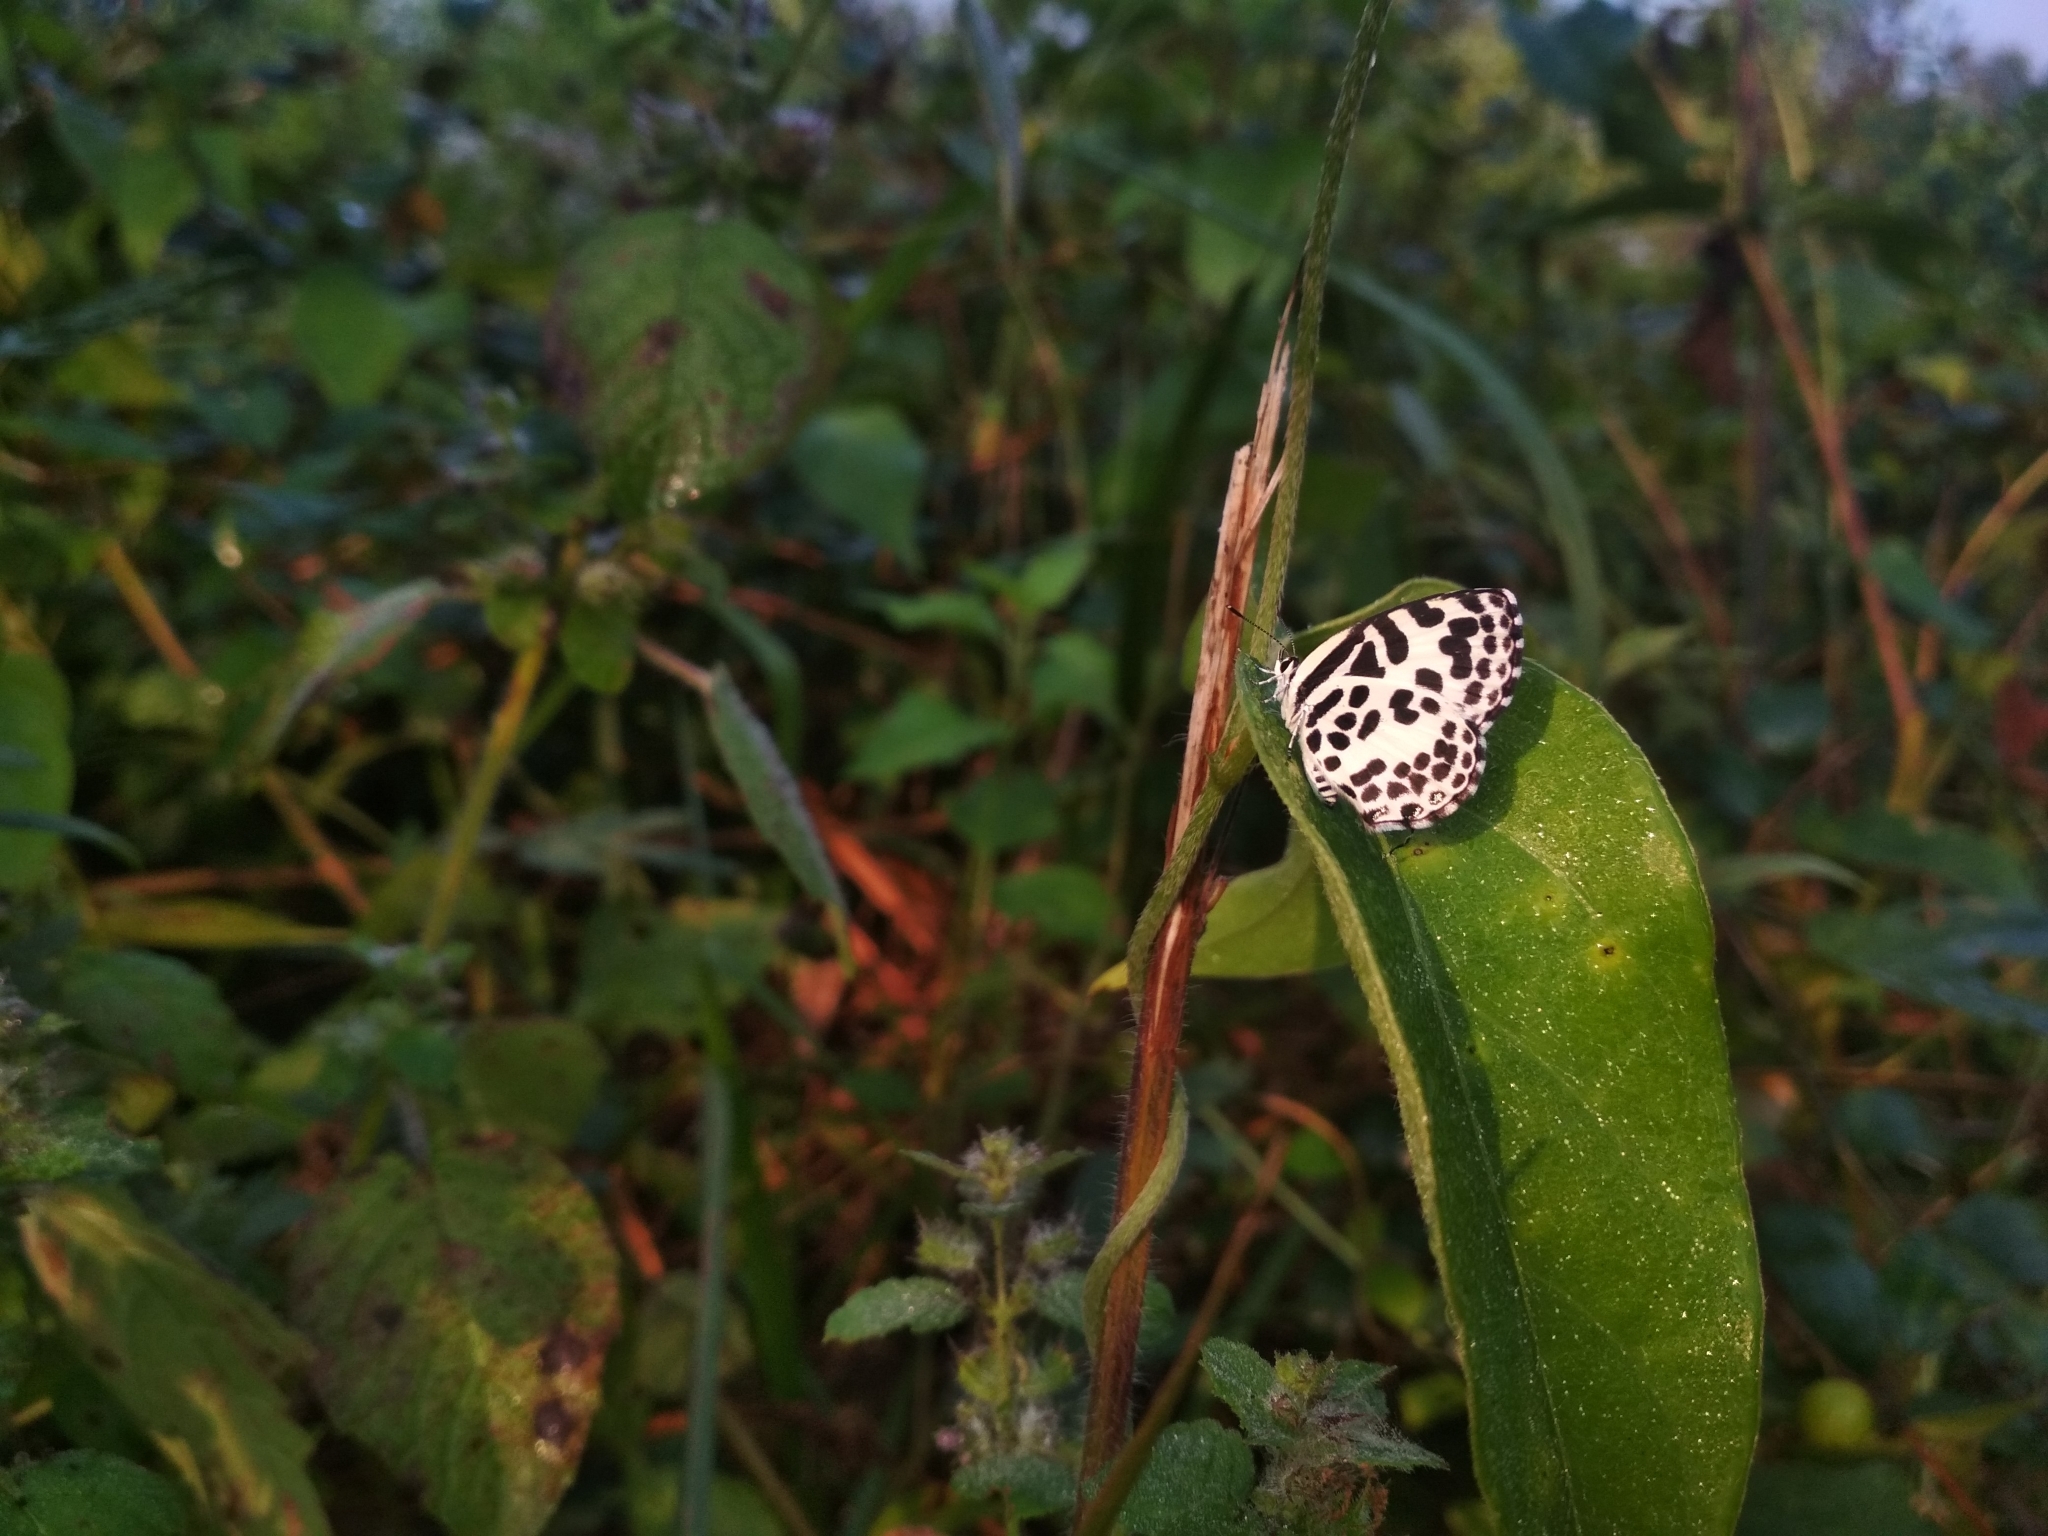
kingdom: Animalia
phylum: Arthropoda
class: Insecta
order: Lepidoptera
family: Lycaenidae
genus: Castalius
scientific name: Castalius rosimon
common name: Common pierrot
